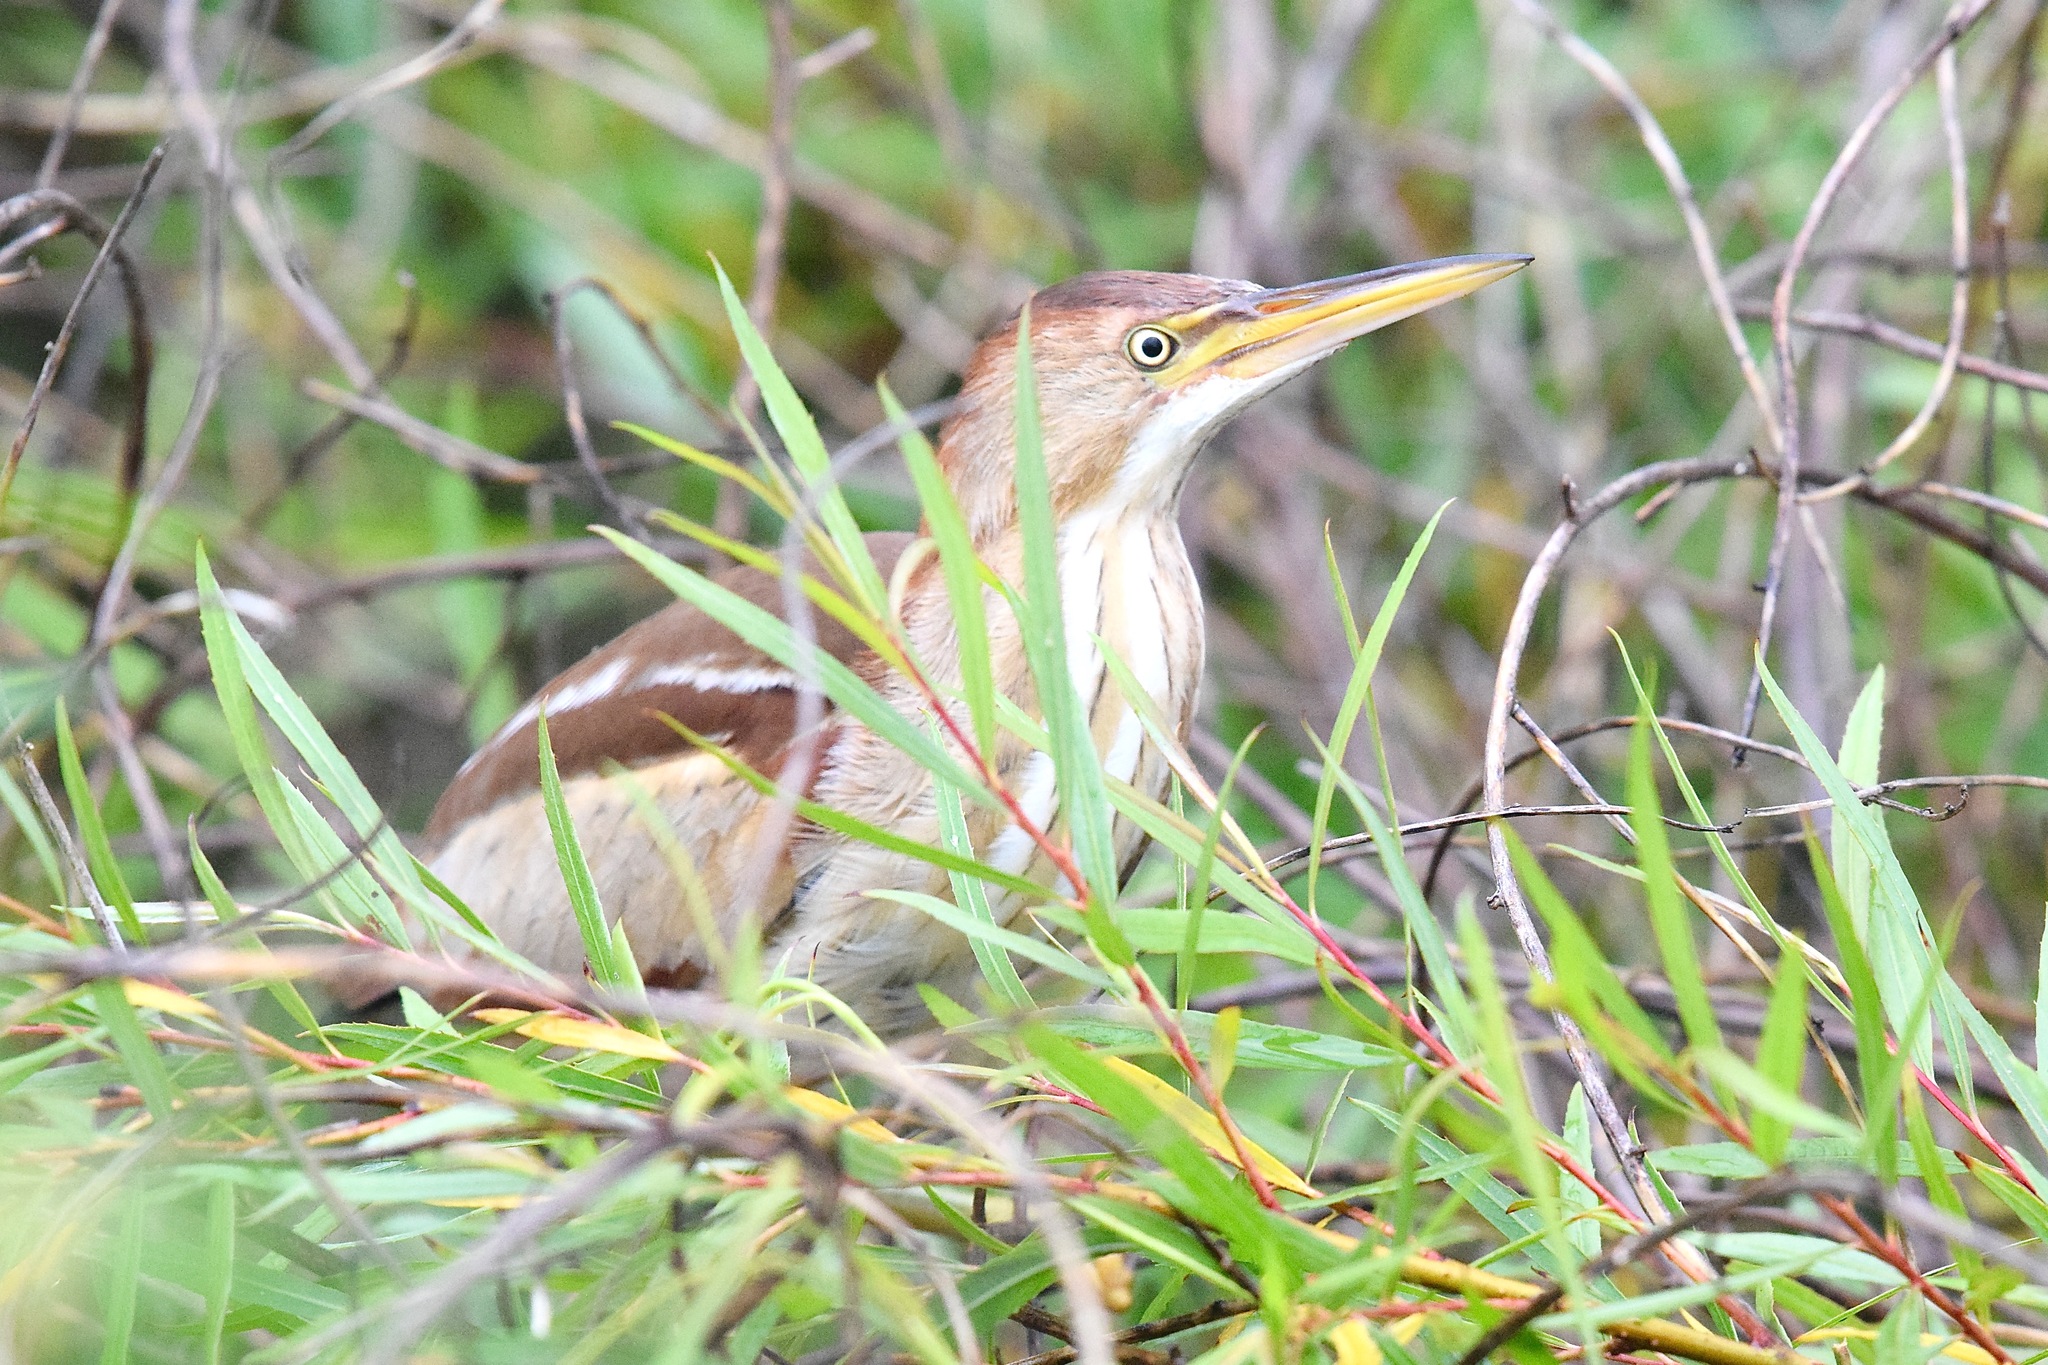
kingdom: Animalia
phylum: Chordata
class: Aves
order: Pelecaniformes
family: Ardeidae
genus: Ixobrychus
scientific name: Ixobrychus exilis
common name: Least bittern
